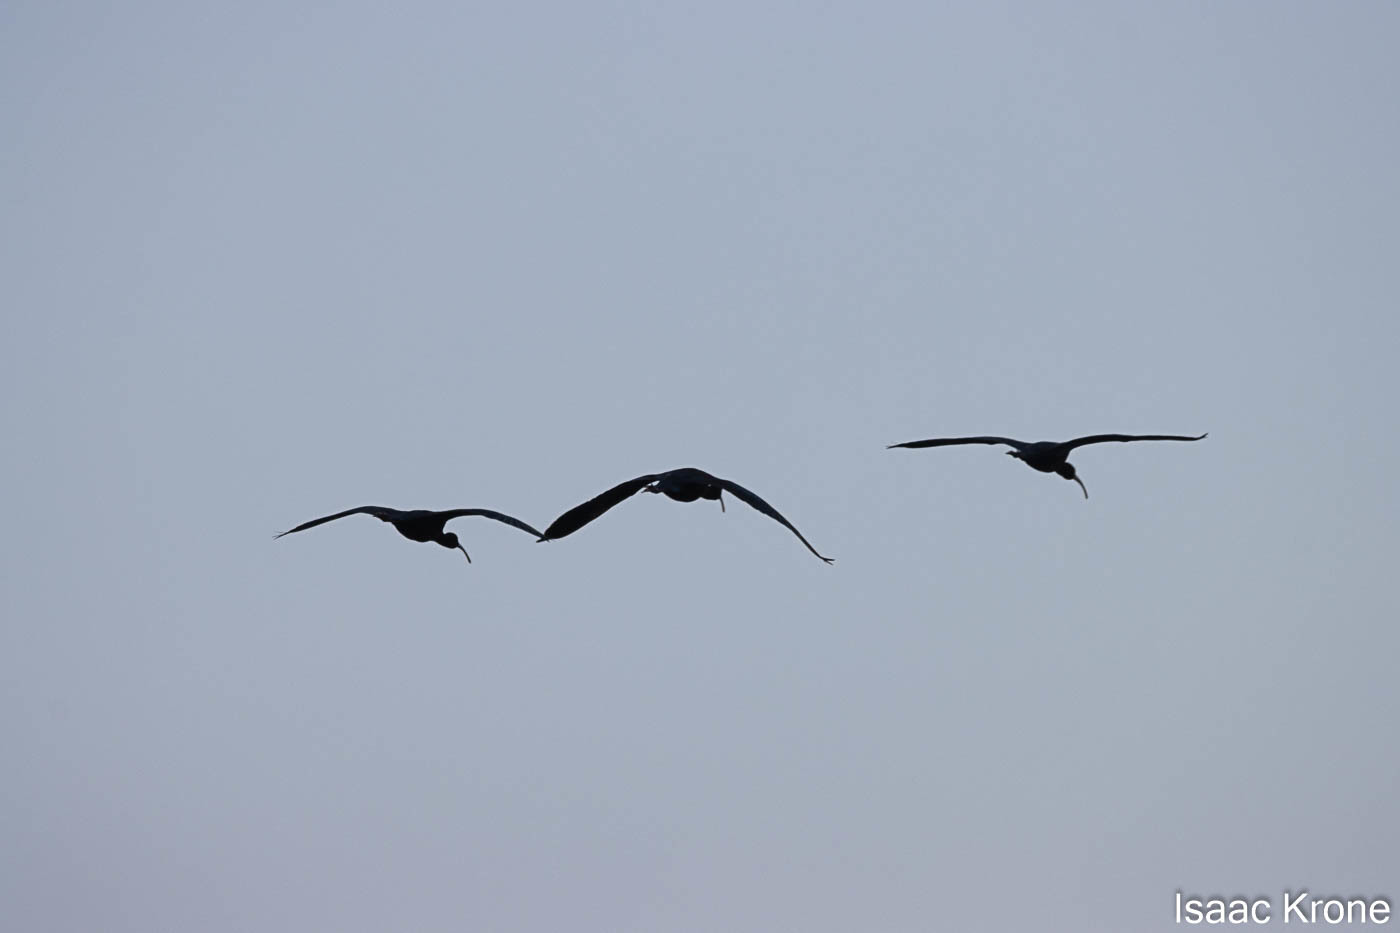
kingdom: Animalia
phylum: Chordata
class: Aves
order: Pelecaniformes
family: Threskiornithidae
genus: Plegadis
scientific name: Plegadis chihi
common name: White-faced ibis
